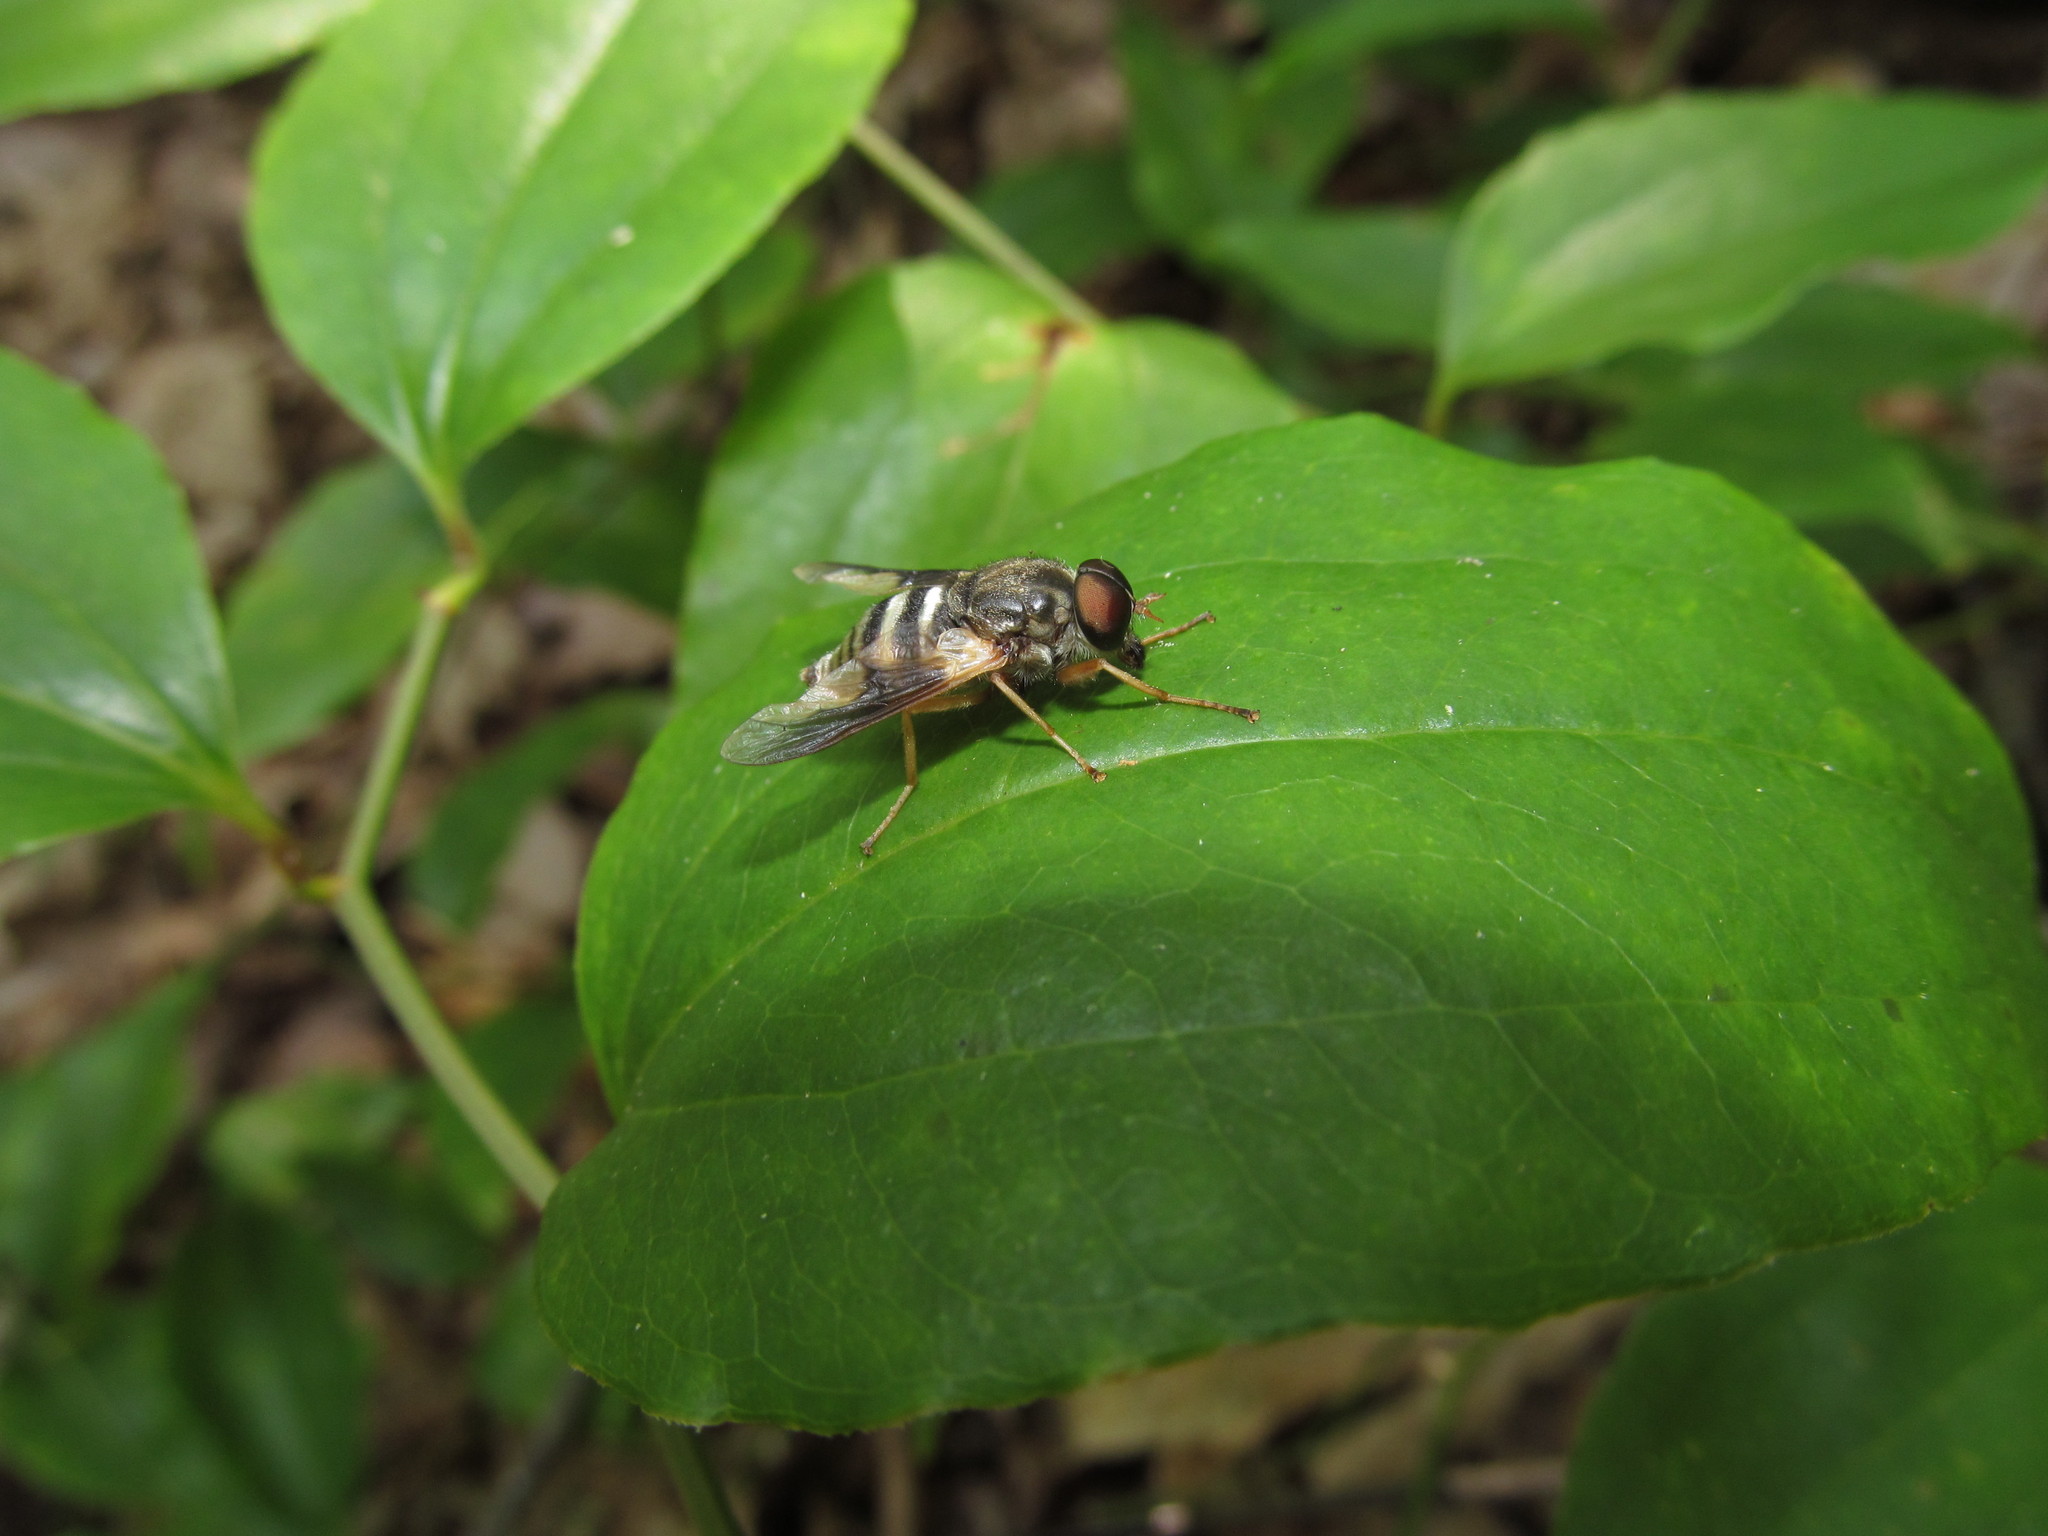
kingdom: Animalia
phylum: Arthropoda
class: Insecta
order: Diptera
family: Tabanidae
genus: Goniops
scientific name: Goniops chrysocoma
